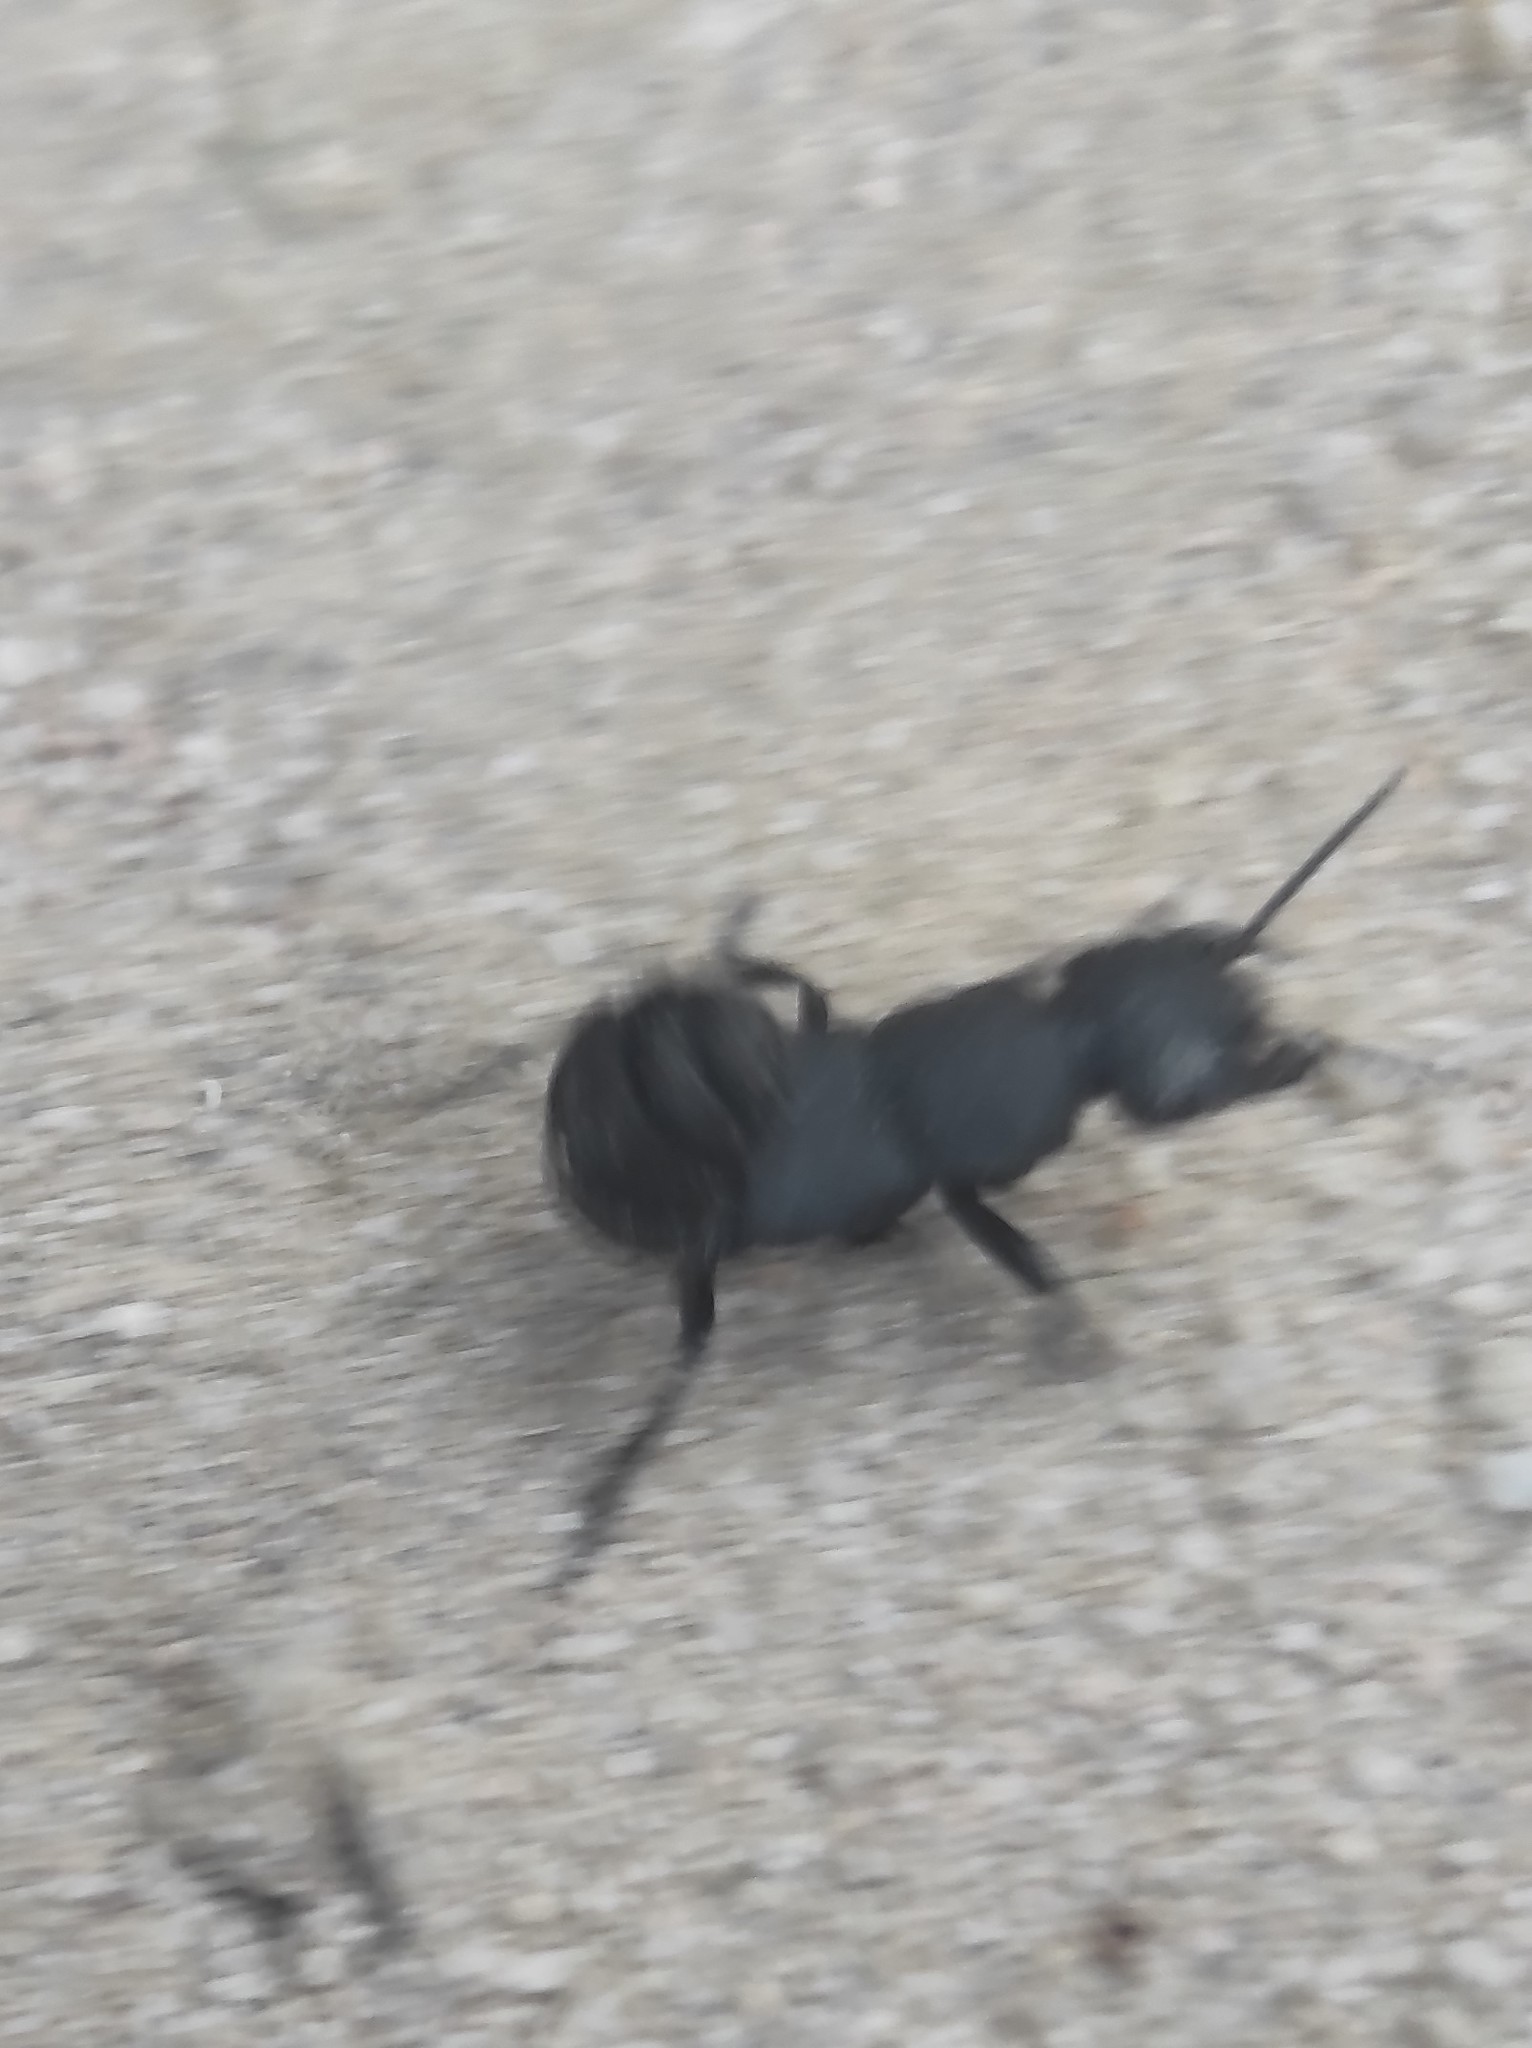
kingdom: Animalia
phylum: Arthropoda
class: Insecta
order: Coleoptera
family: Staphylinidae
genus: Ocypus
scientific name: Ocypus olens
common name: Devil's coach-horse
